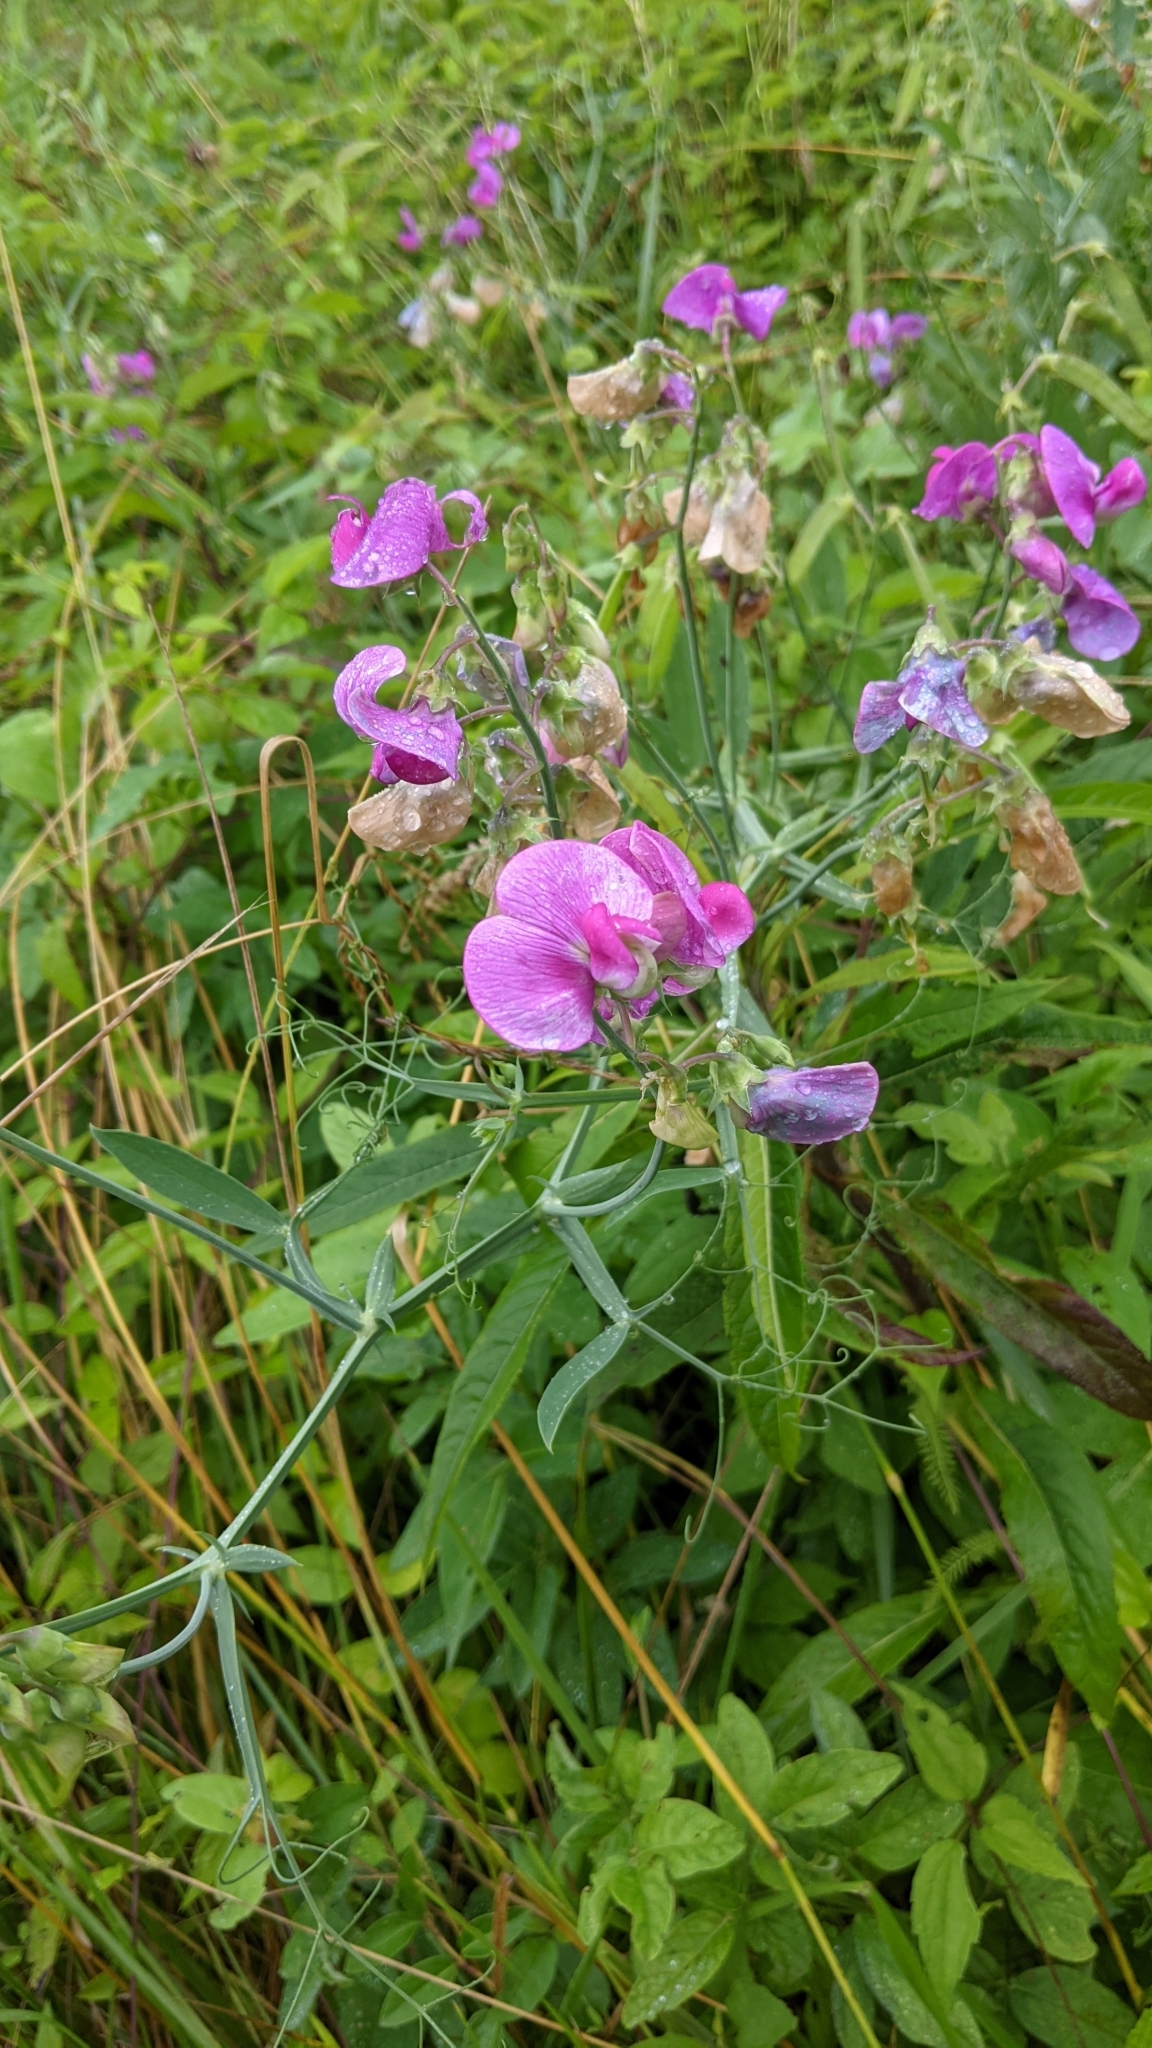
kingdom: Plantae
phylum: Tracheophyta
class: Magnoliopsida
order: Fabales
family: Fabaceae
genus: Lathyrus
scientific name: Lathyrus latifolius
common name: Perennial pea
